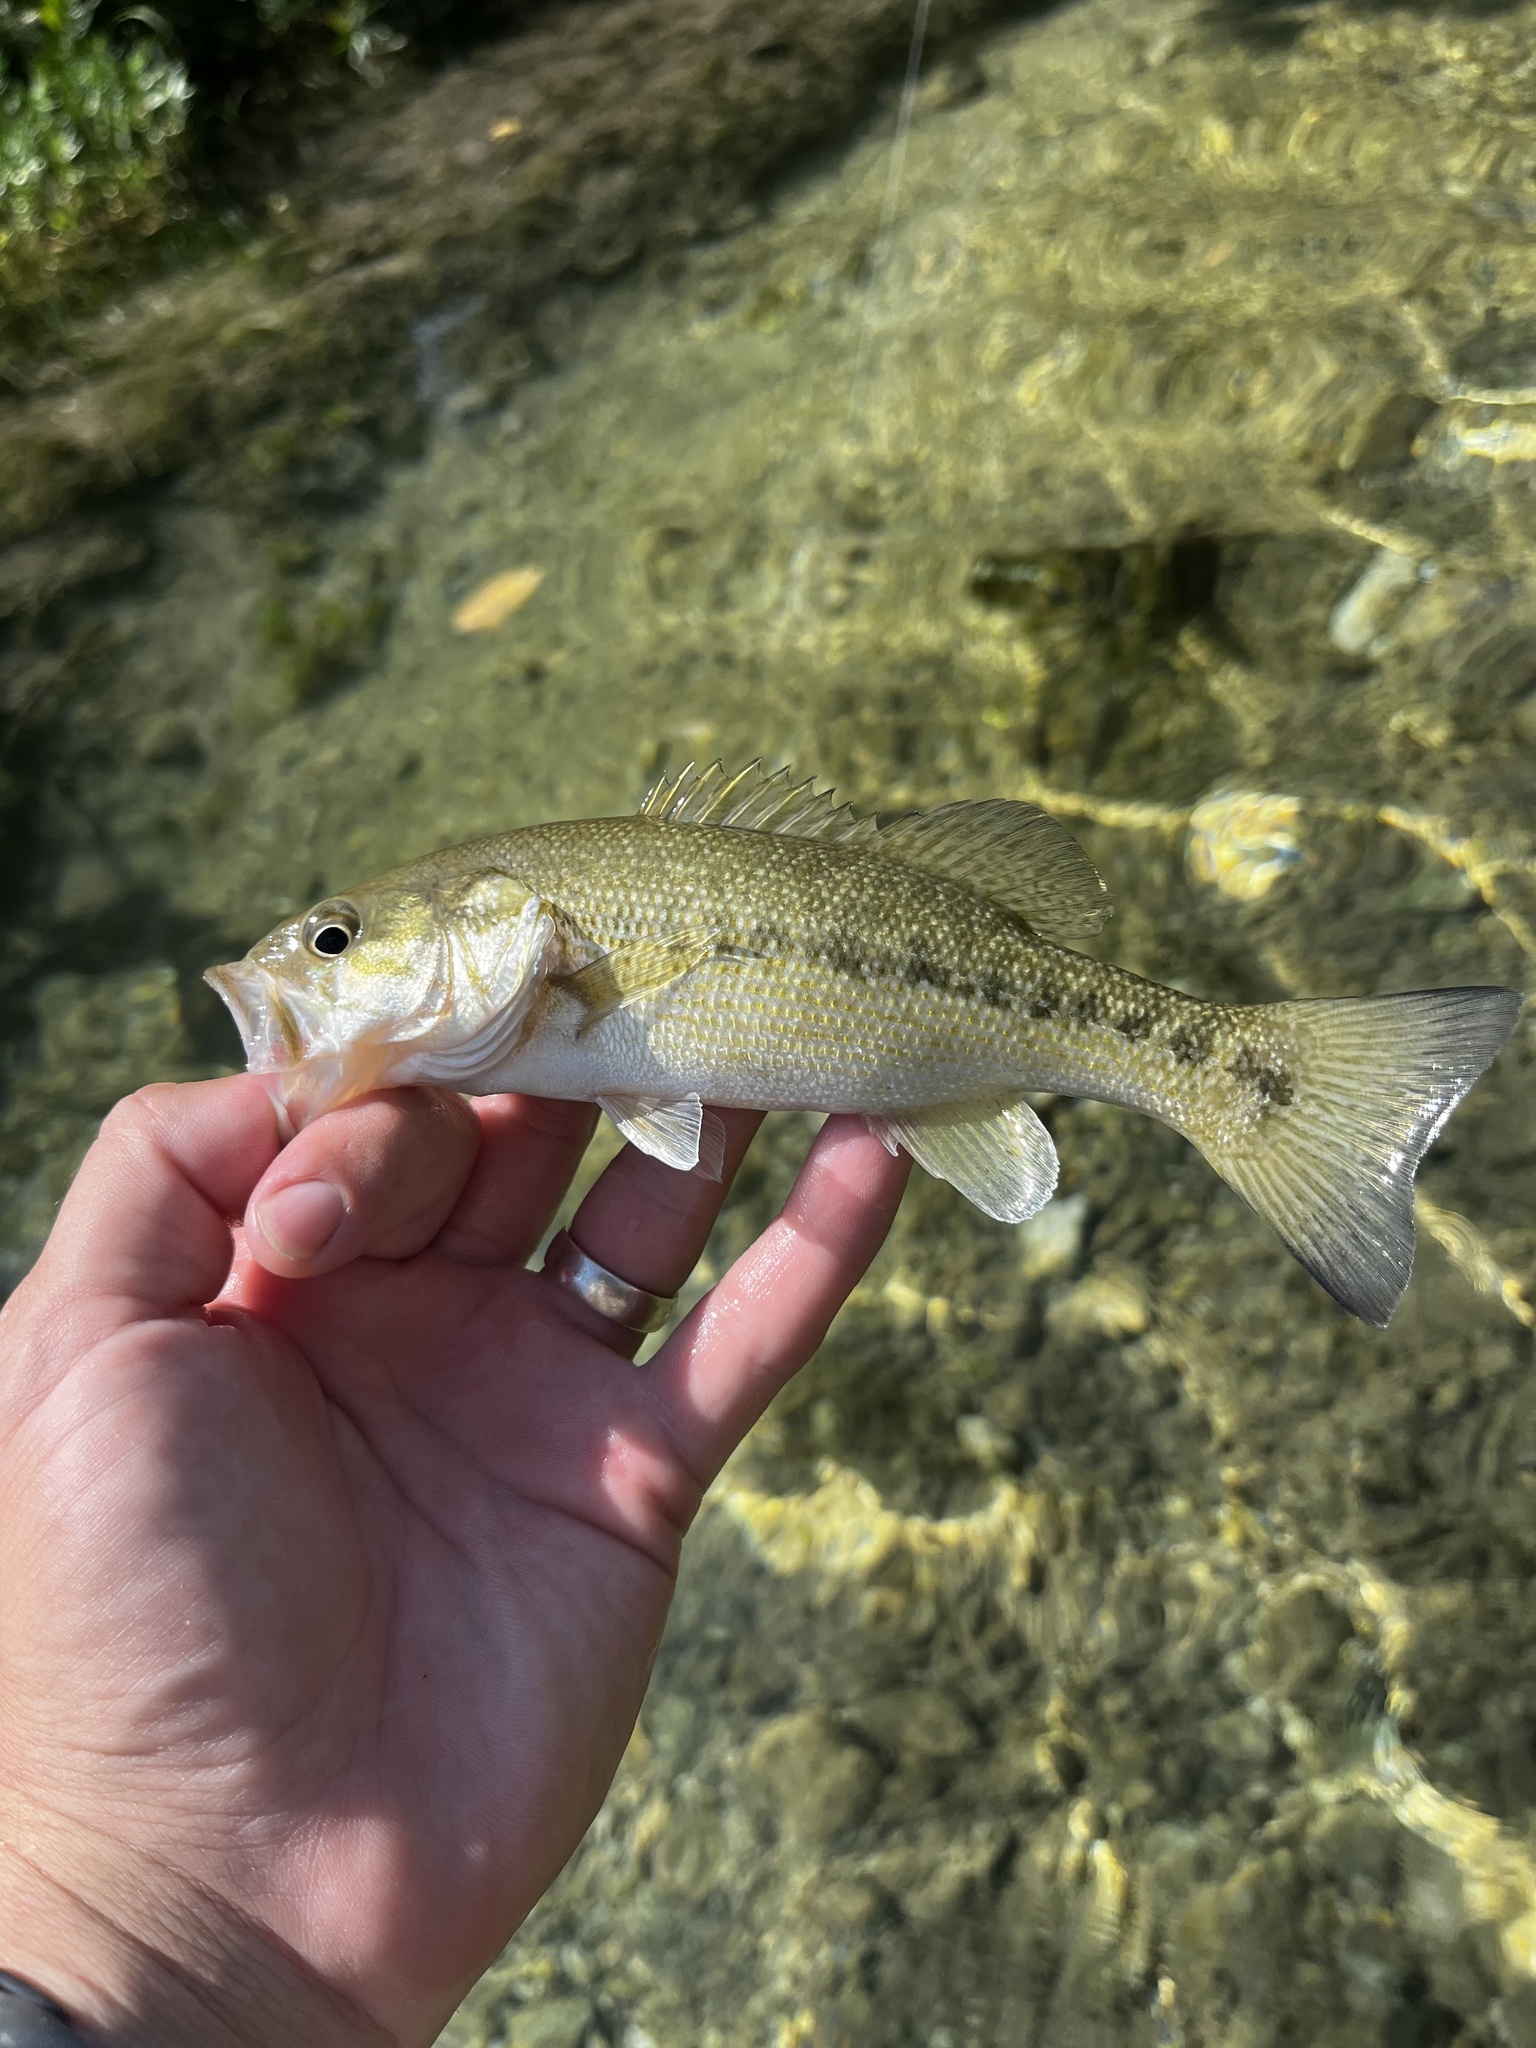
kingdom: Animalia
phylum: Chordata
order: Perciformes
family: Centrarchidae
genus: Micropterus
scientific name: Micropterus treculii
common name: Guadalupe bass
